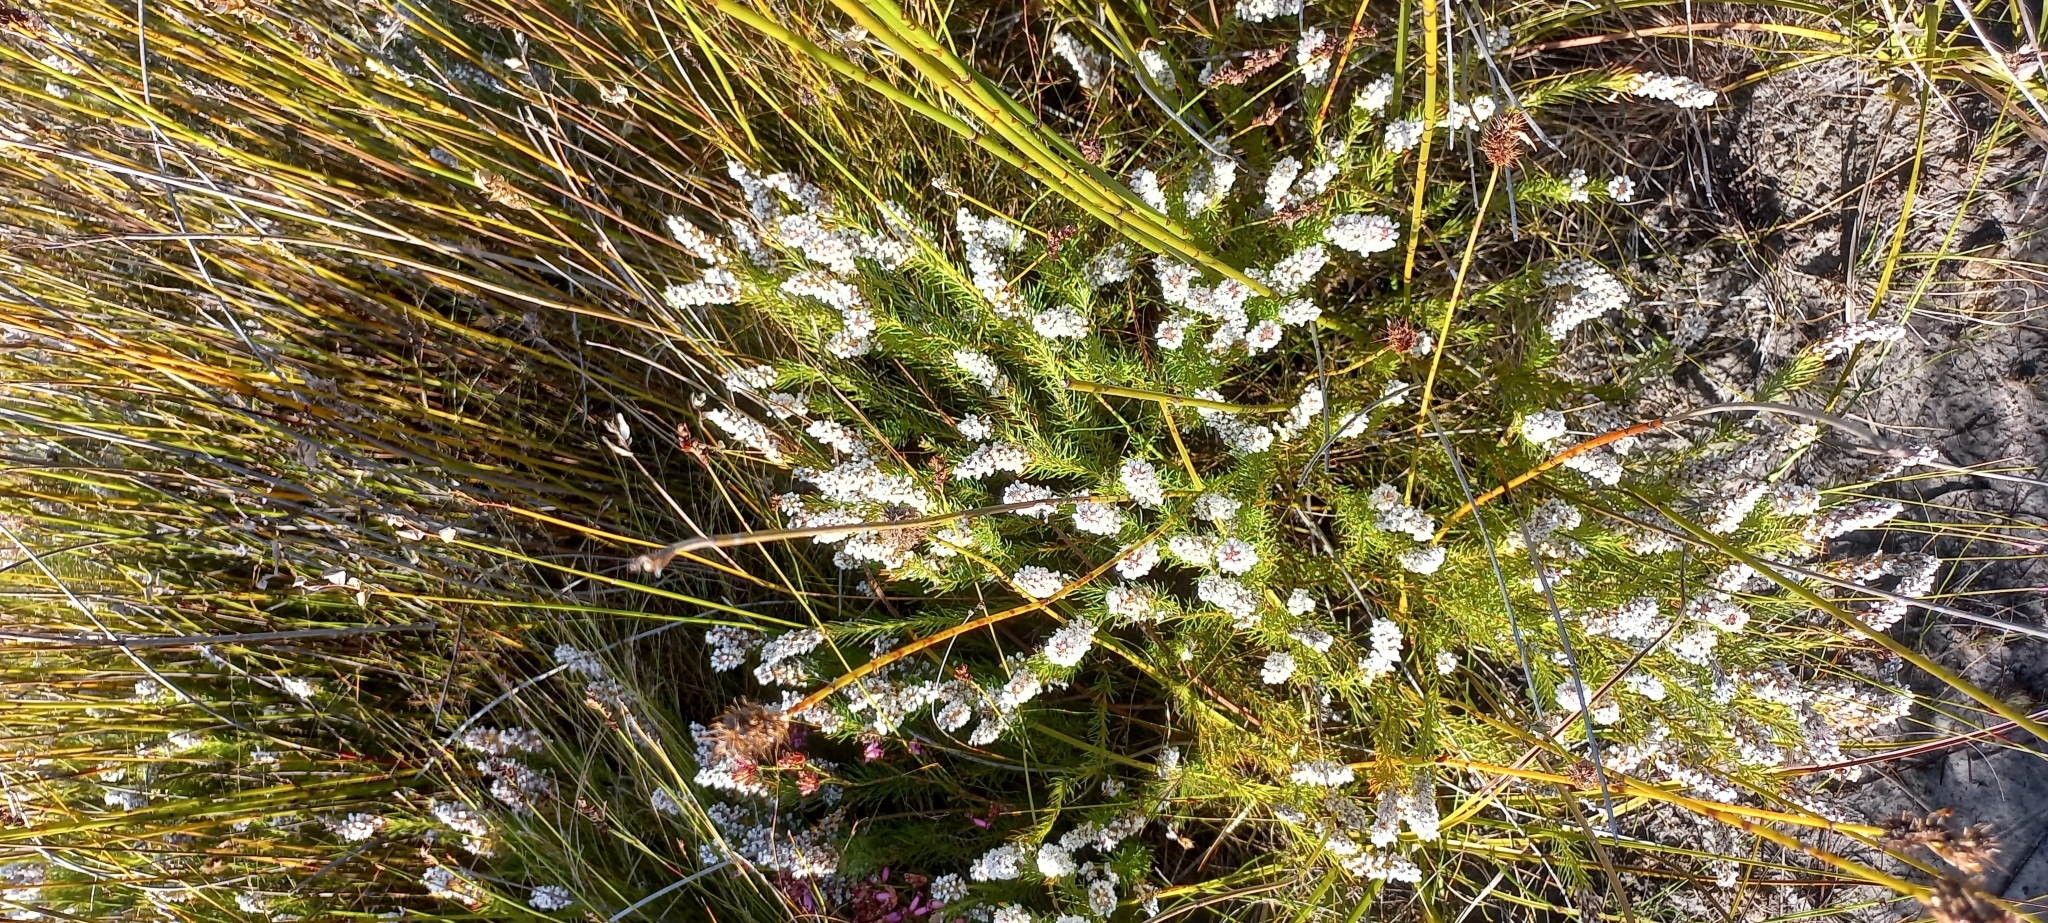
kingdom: Plantae
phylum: Tracheophyta
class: Magnoliopsida
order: Proteales
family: Proteaceae
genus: Spatalla
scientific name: Spatalla mollis
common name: Woolly spoon
